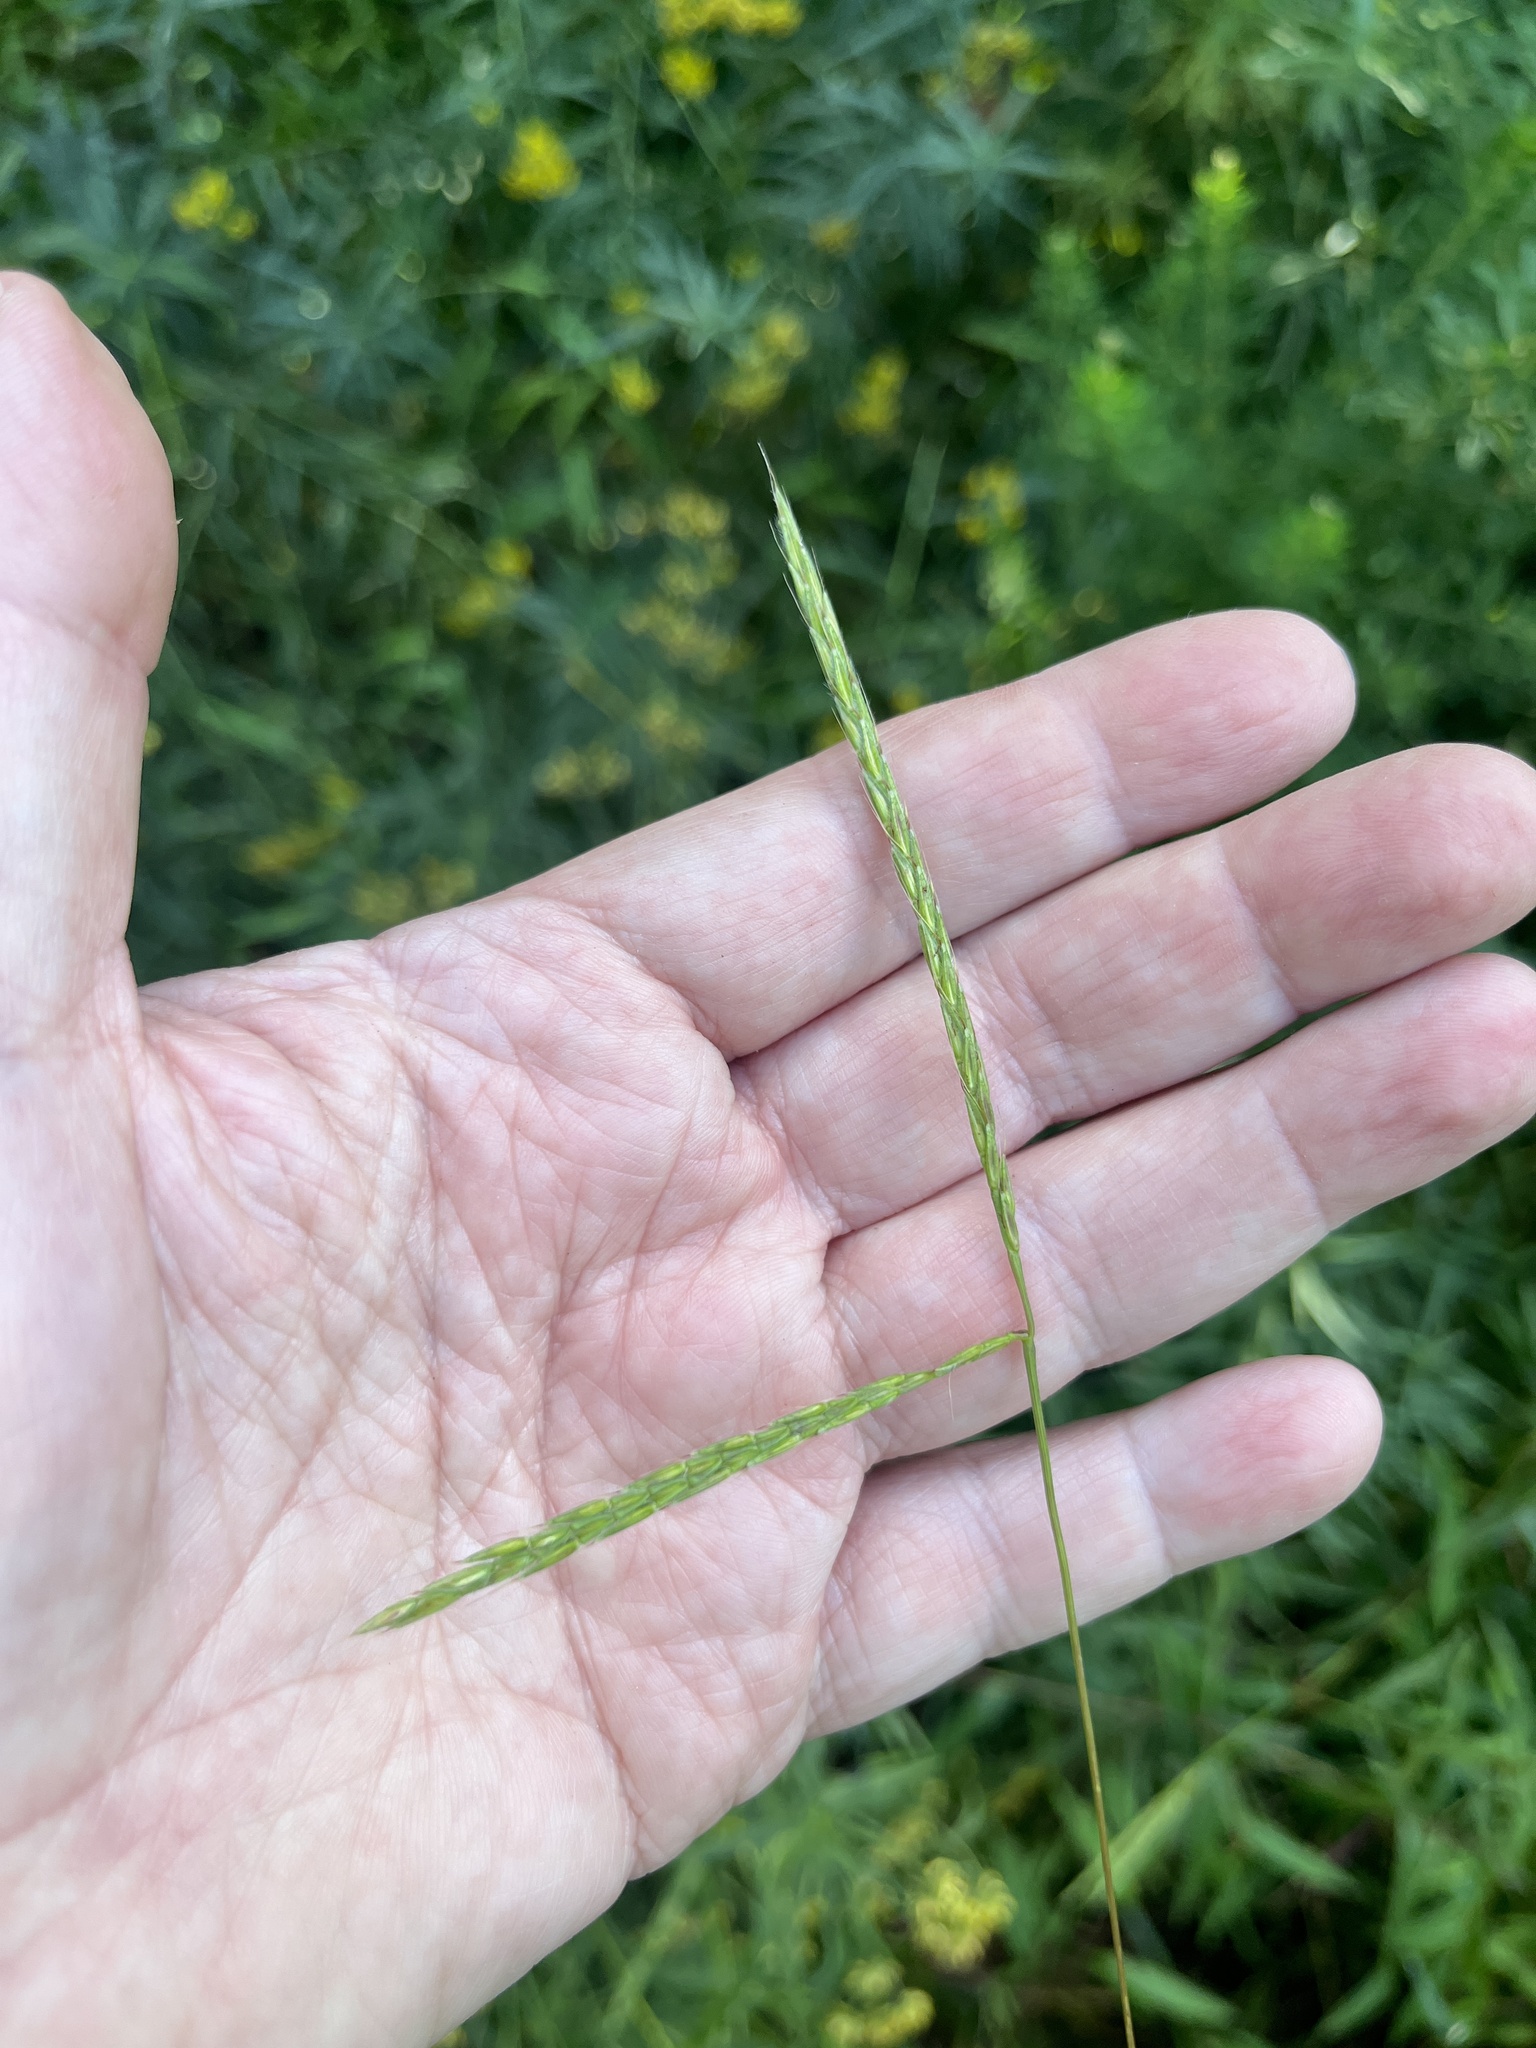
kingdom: Plantae
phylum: Tracheophyta
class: Liliopsida
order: Poales
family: Poaceae
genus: Microstegium
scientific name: Microstegium vimineum
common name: Japanese stiltgrass
